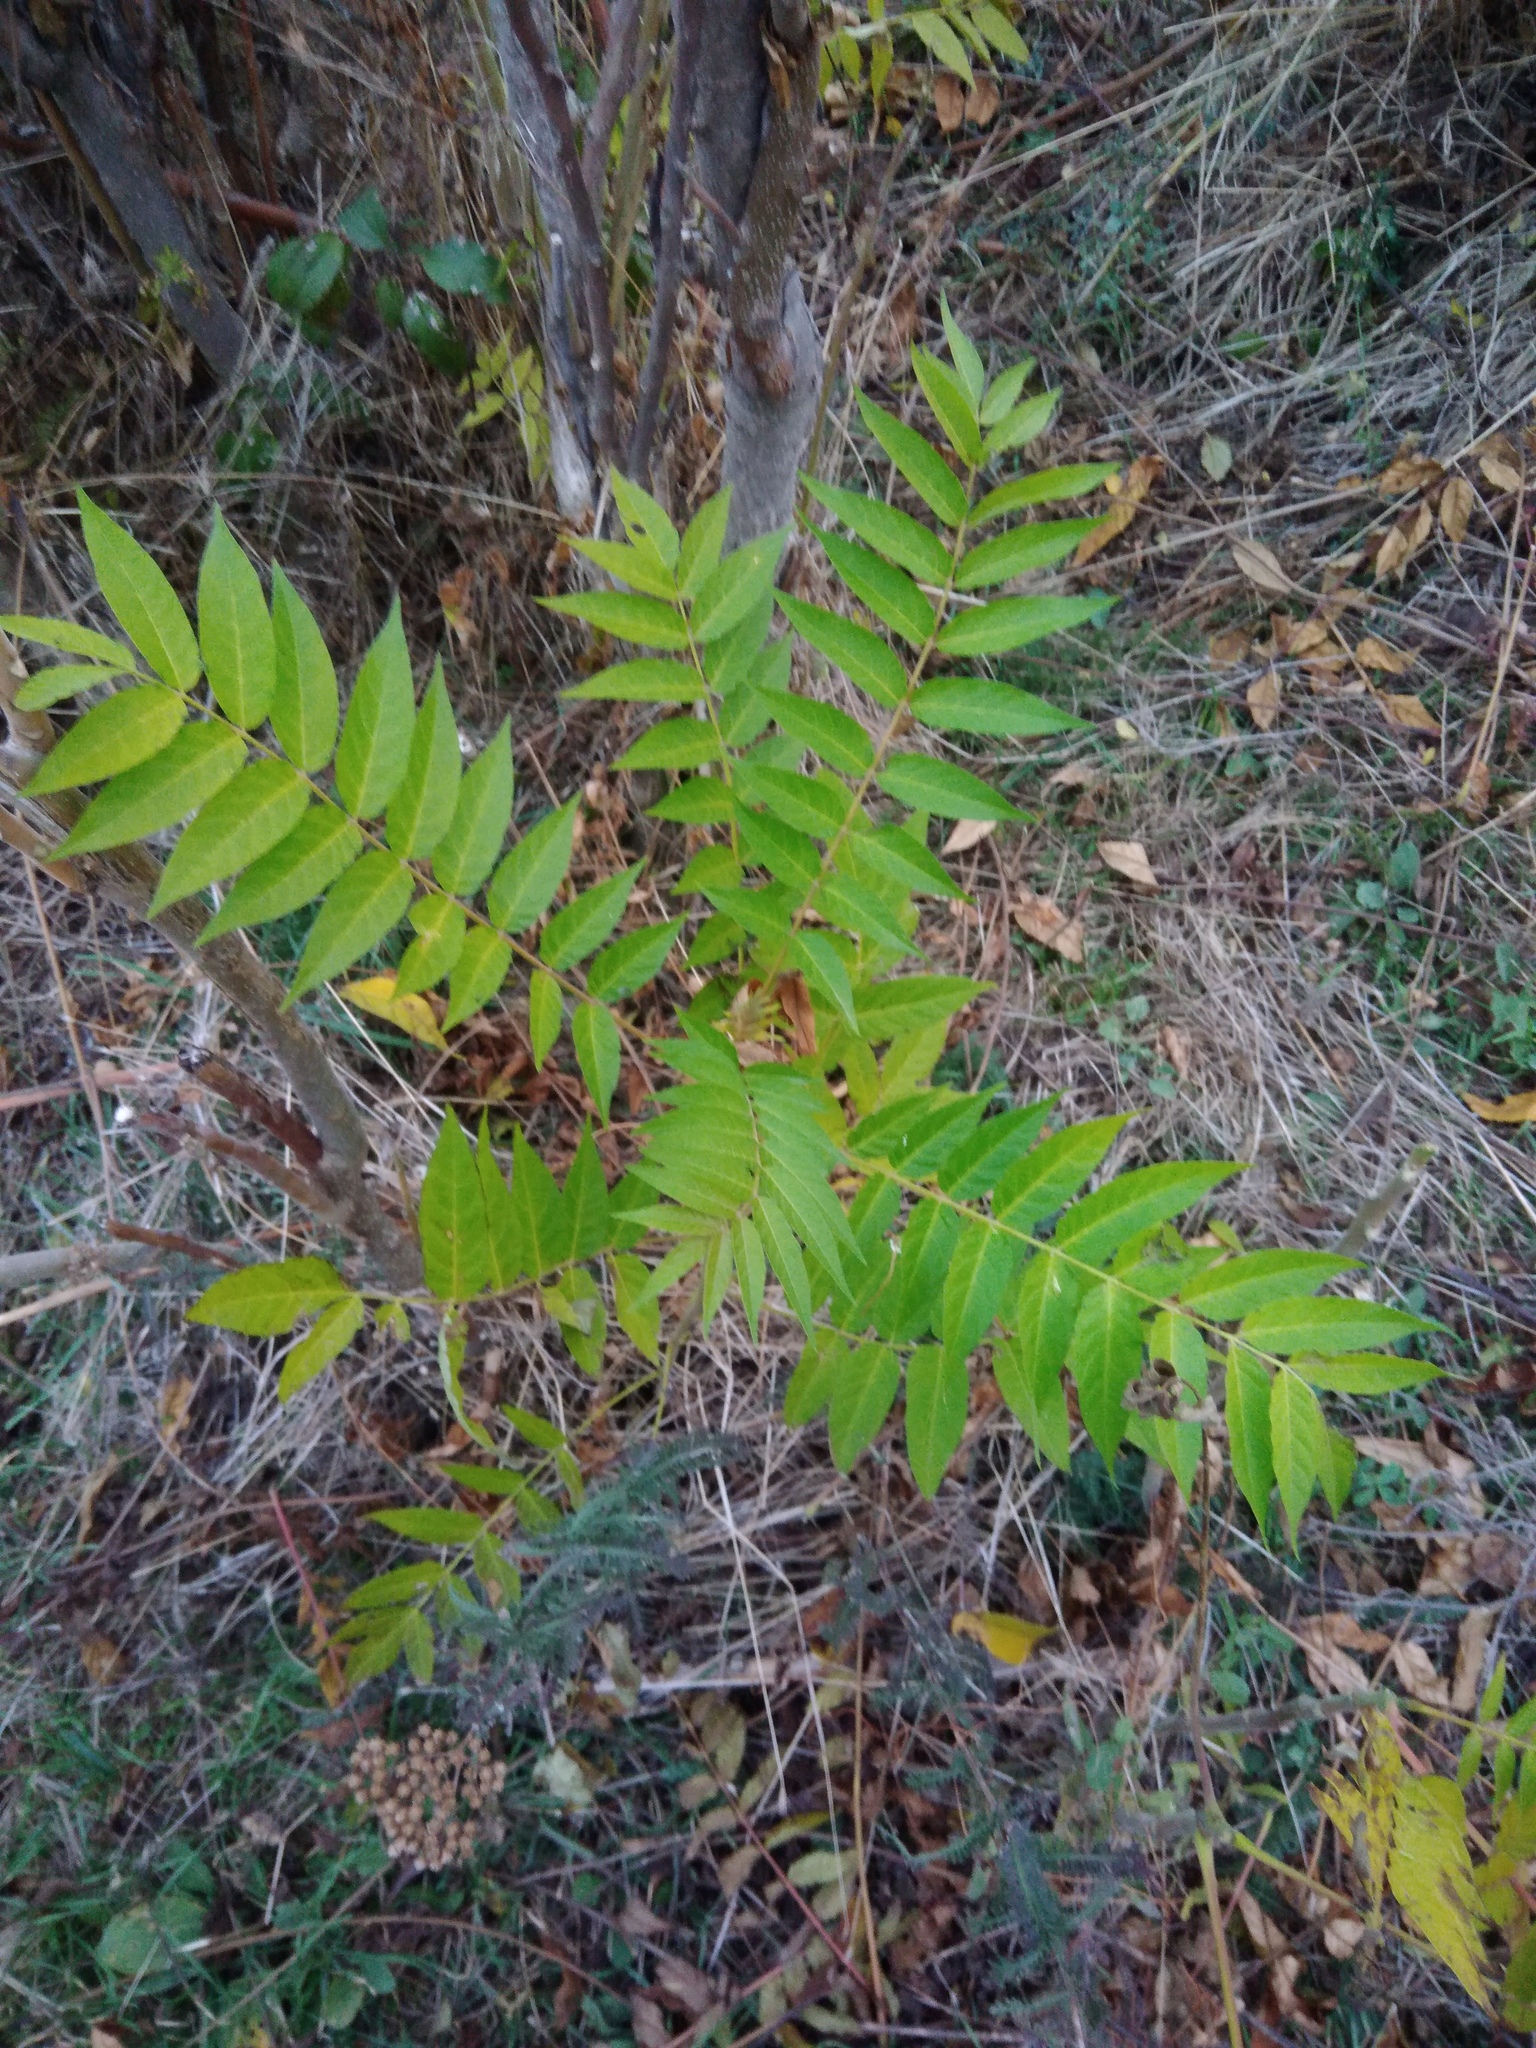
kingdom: Plantae
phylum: Tracheophyta
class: Magnoliopsida
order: Sapindales
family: Simaroubaceae
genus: Ailanthus
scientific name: Ailanthus altissima
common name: Tree-of-heaven
